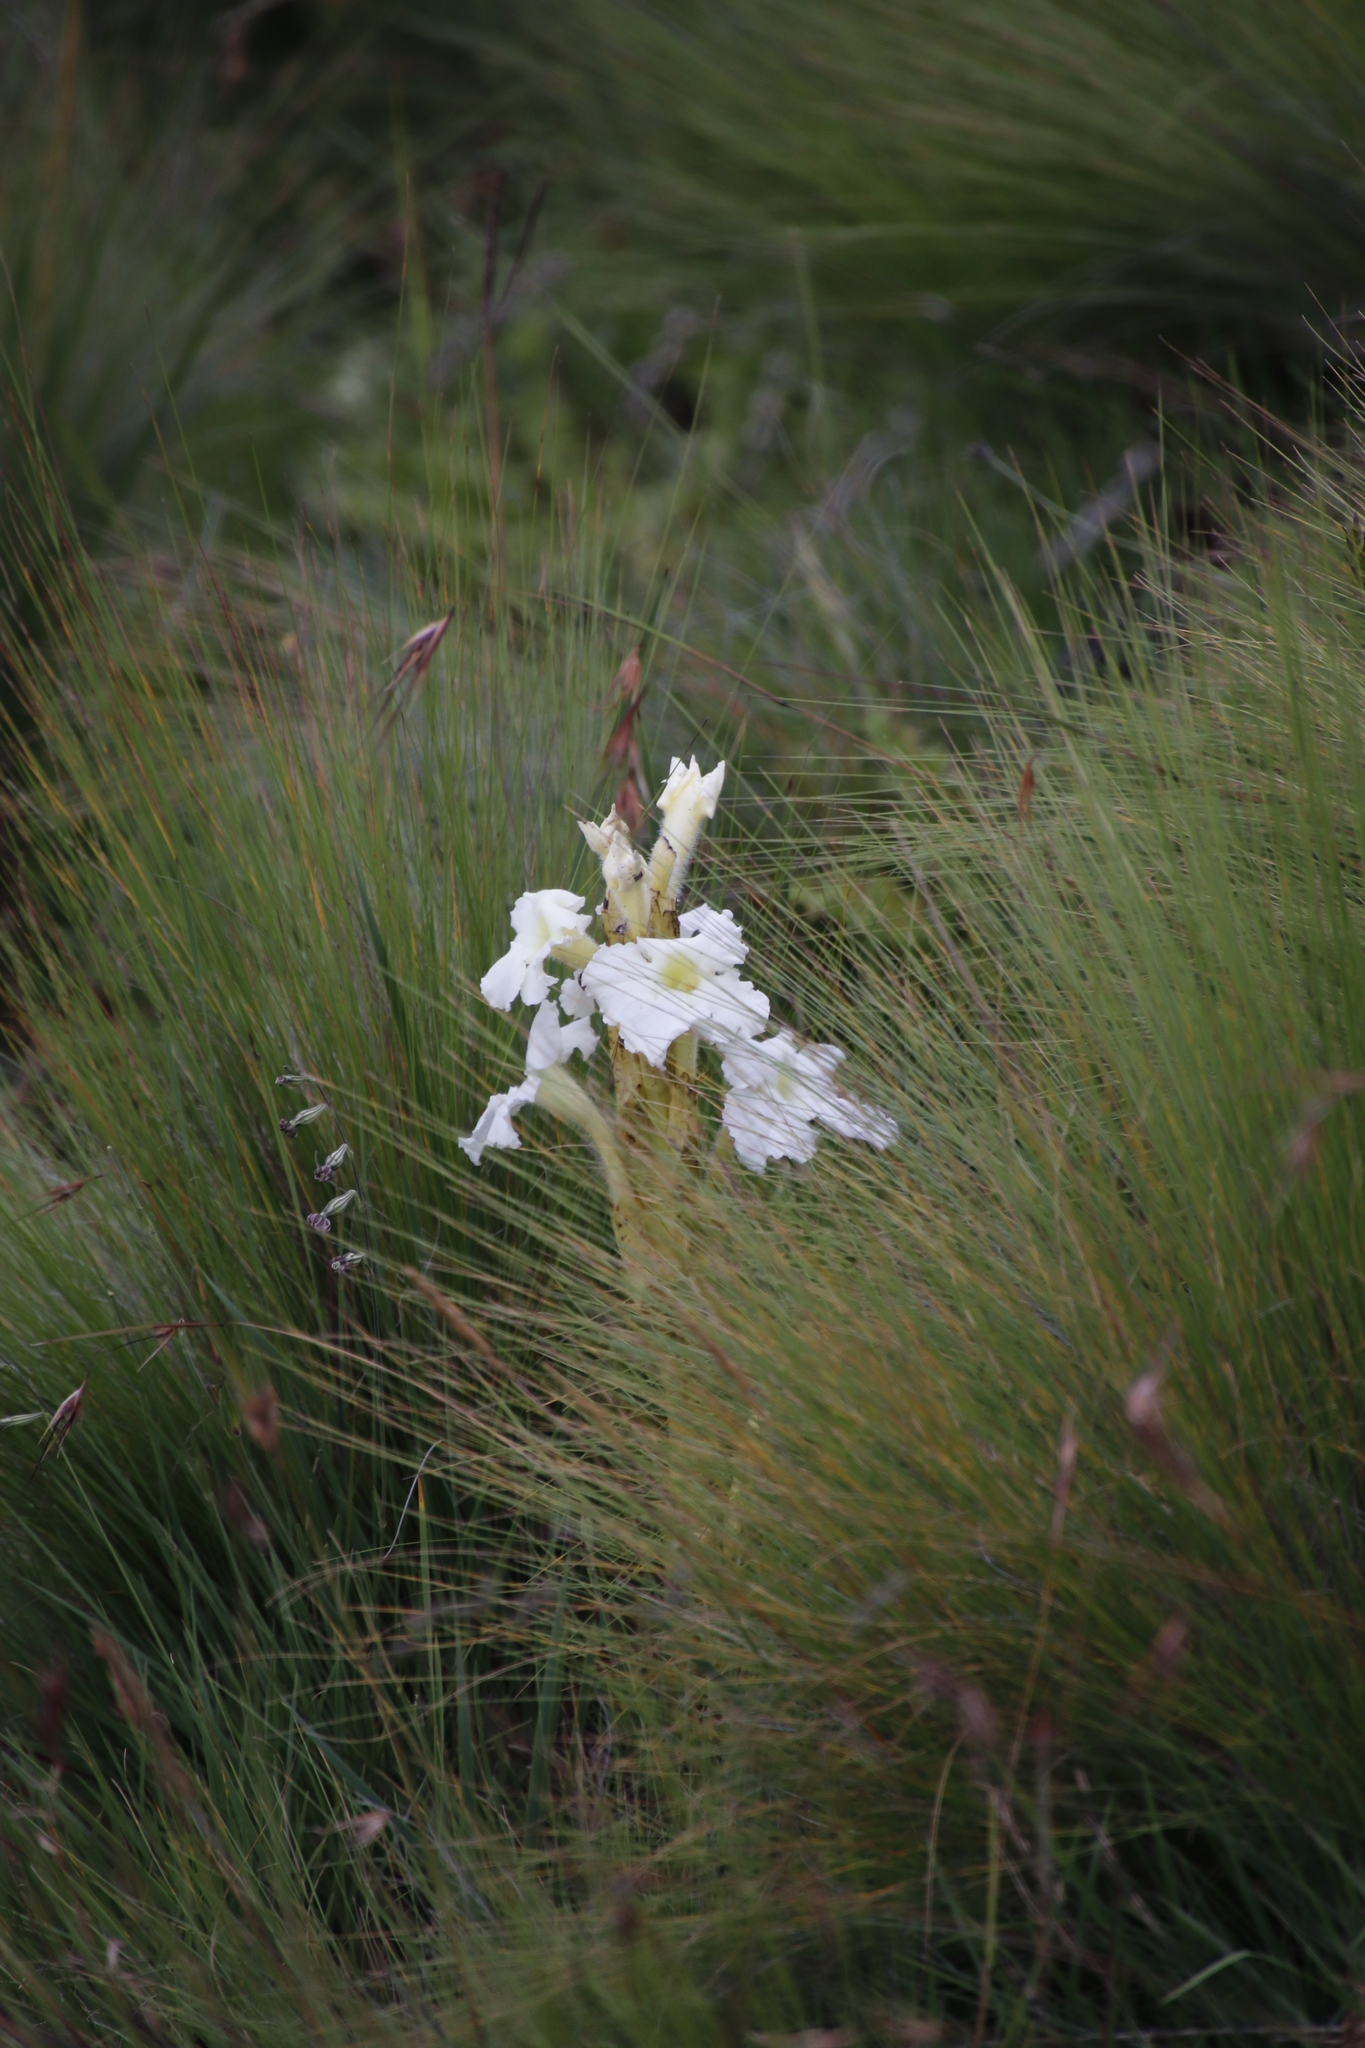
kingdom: Plantae
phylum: Tracheophyta
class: Magnoliopsida
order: Lamiales
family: Orobanchaceae
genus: Harveya
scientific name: Harveya speciosa
